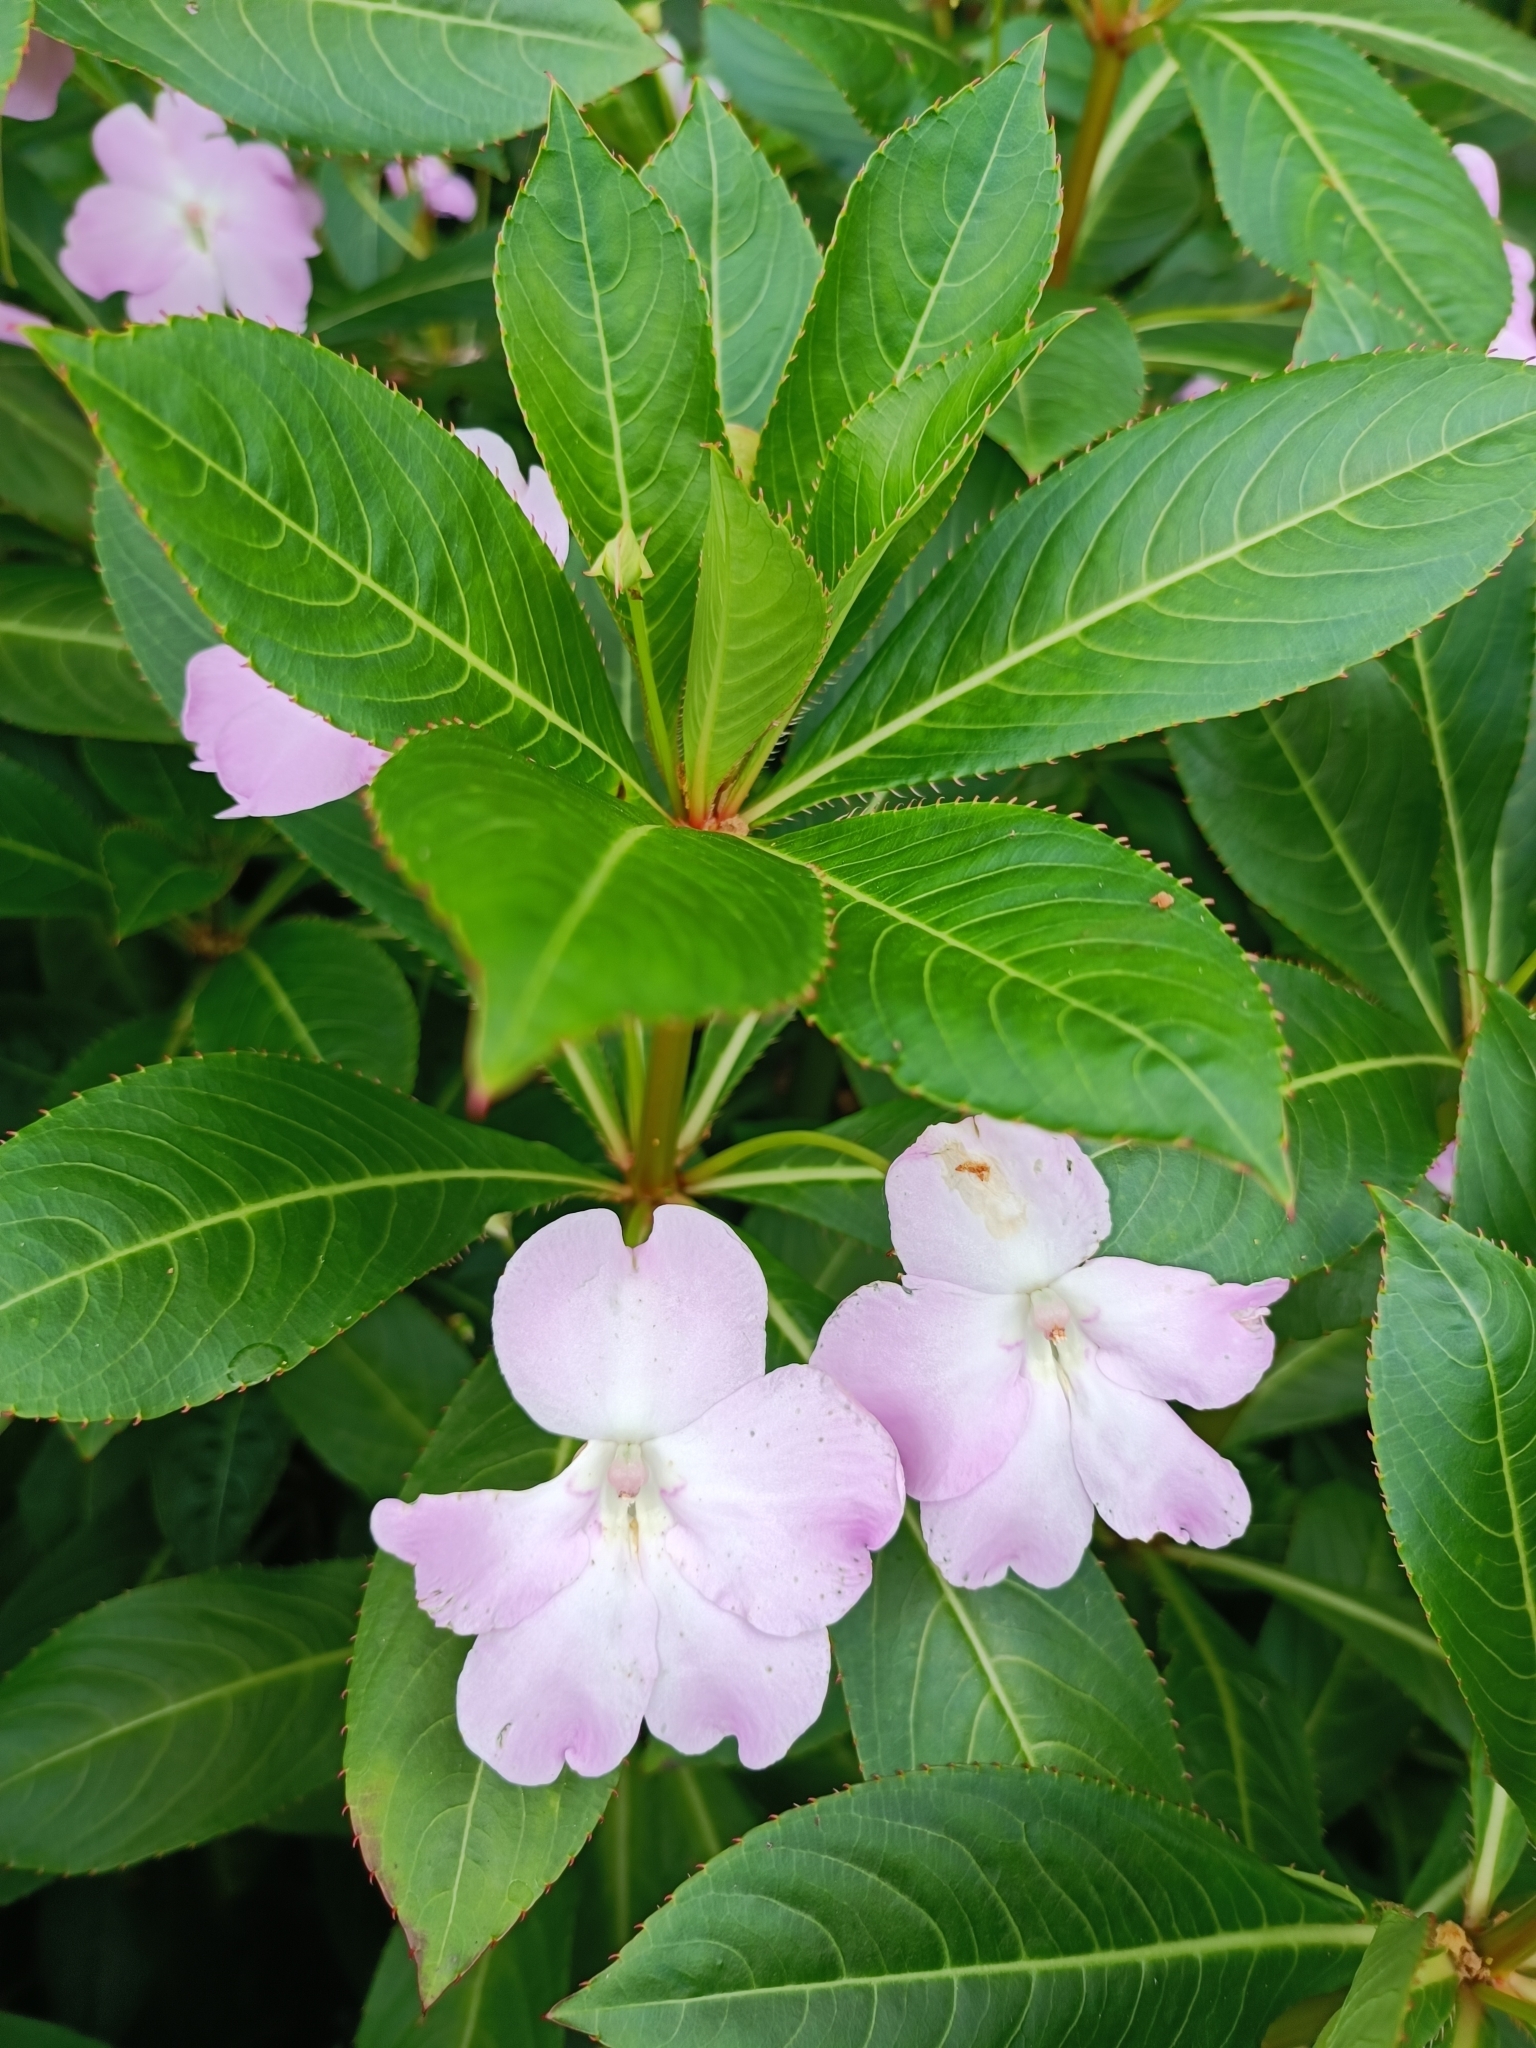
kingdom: Plantae
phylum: Tracheophyta
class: Magnoliopsida
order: Ericales
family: Balsaminaceae
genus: Impatiens
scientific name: Impatiens sodenii
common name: Oliver's touch-me-not
